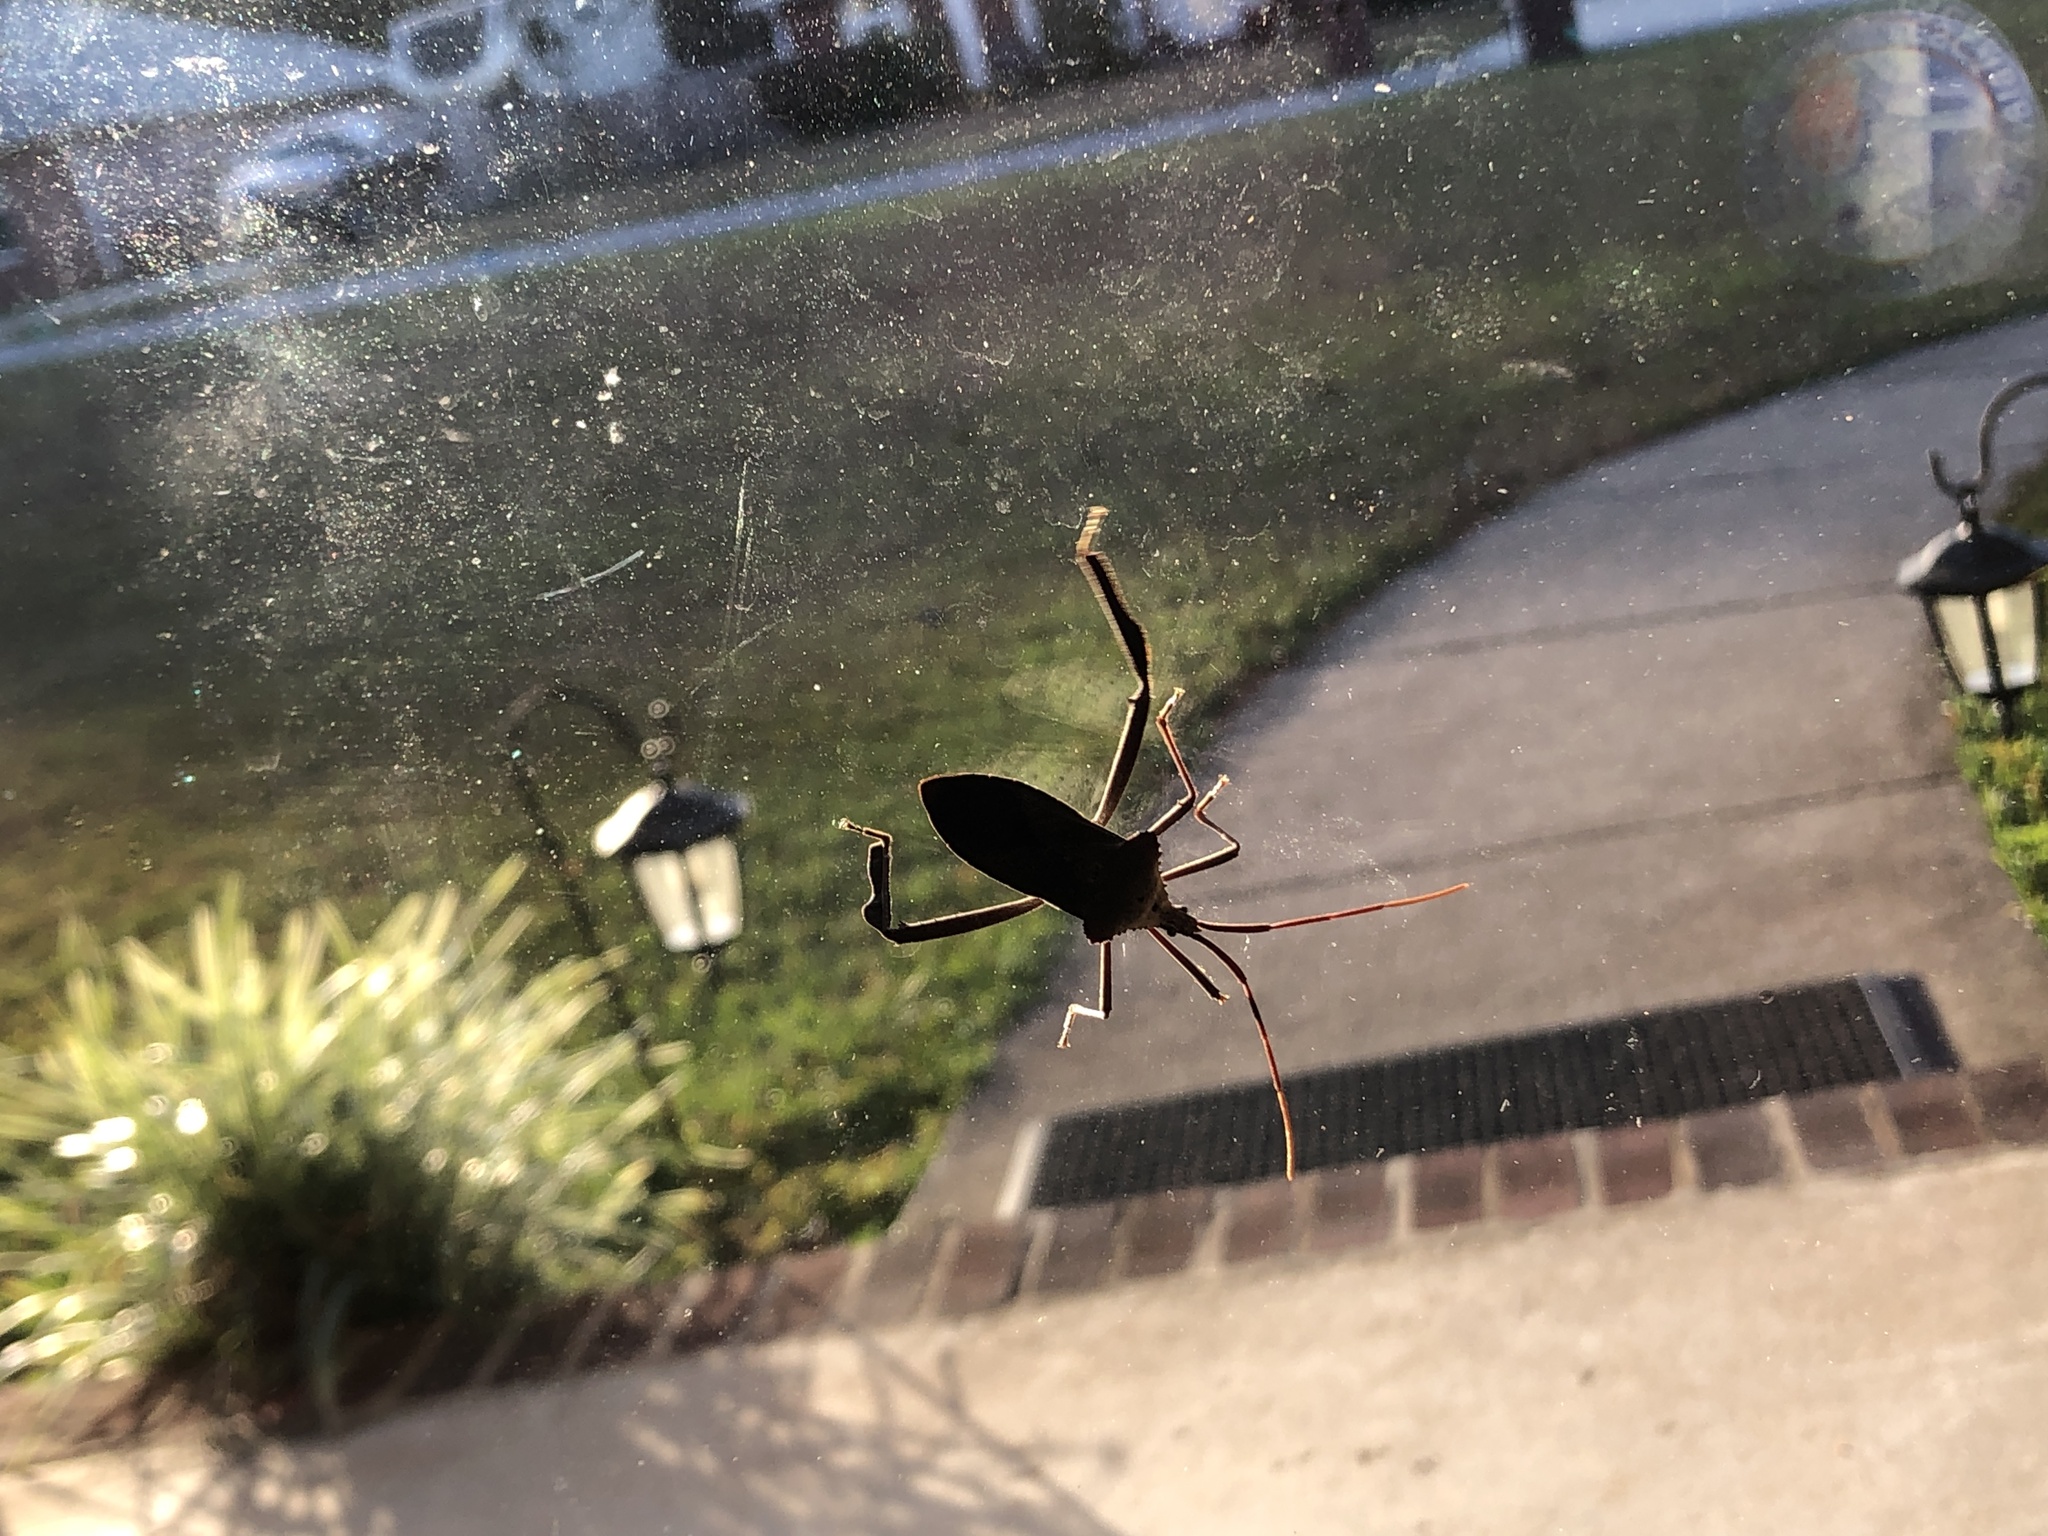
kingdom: Animalia
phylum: Arthropoda
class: Insecta
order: Hemiptera
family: Coreidae
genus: Acanthocephala
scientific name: Acanthocephala declivis
